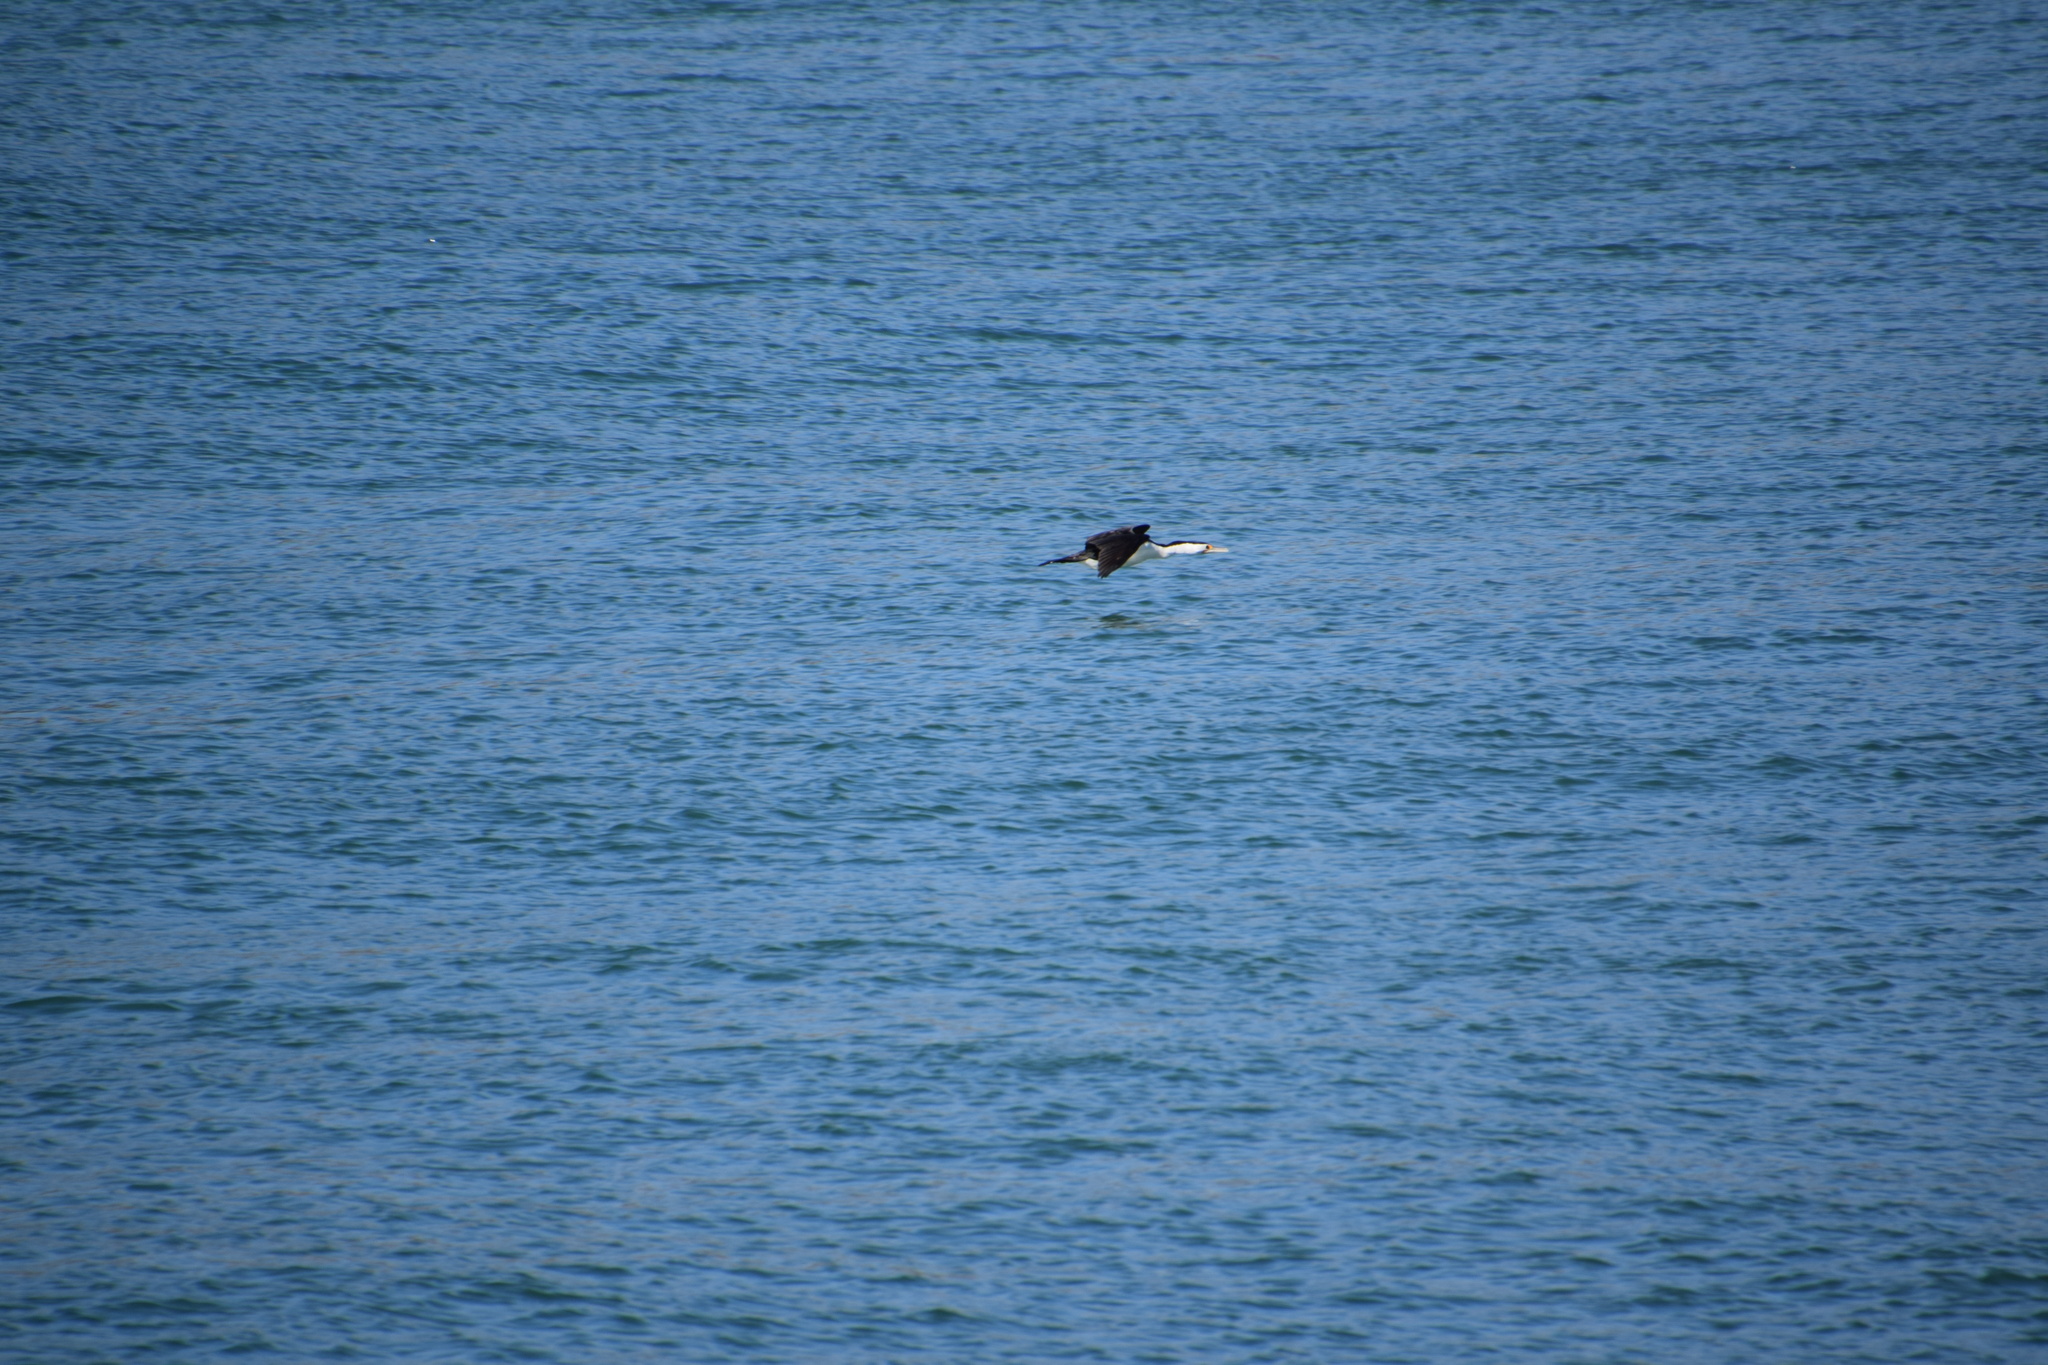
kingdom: Animalia
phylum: Chordata
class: Aves
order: Suliformes
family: Phalacrocoracidae
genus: Phalacrocorax
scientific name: Phalacrocorax varius
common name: Pied cormorant
